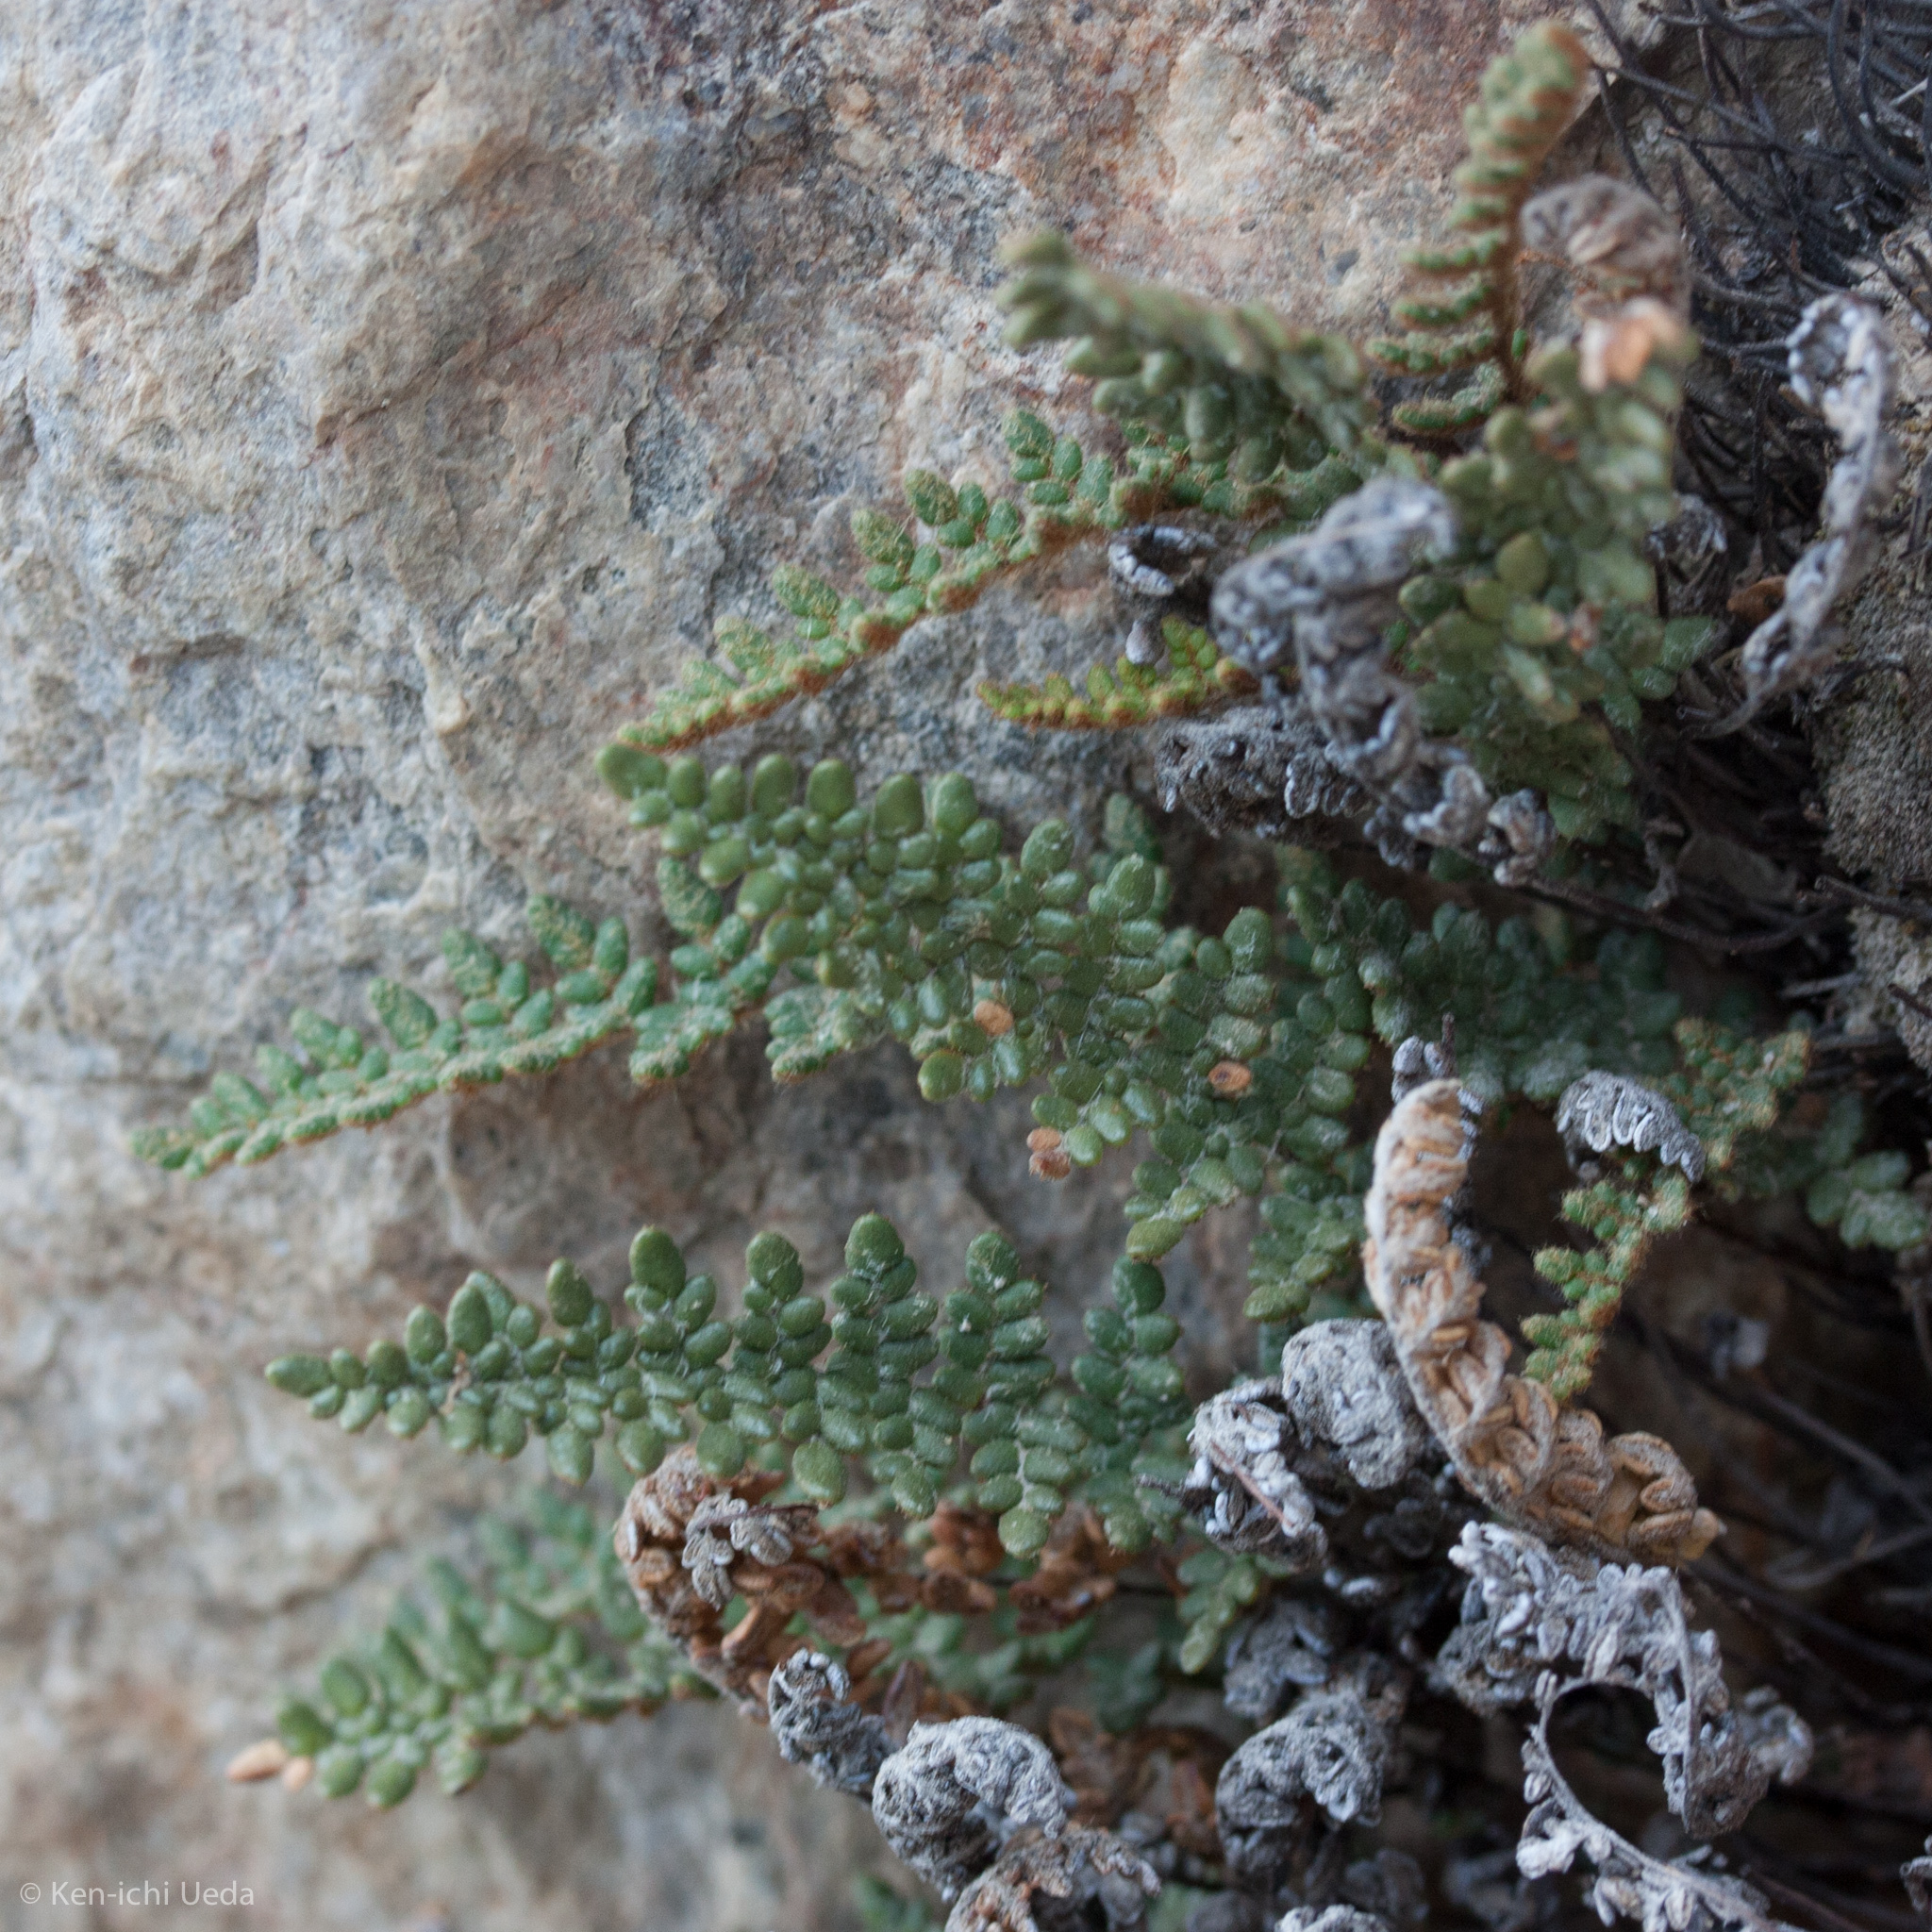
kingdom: Plantae
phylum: Tracheophyta
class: Polypodiopsida
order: Polypodiales
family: Pteridaceae
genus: Myriopteris
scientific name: Myriopteris gracillima
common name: Lace fern
